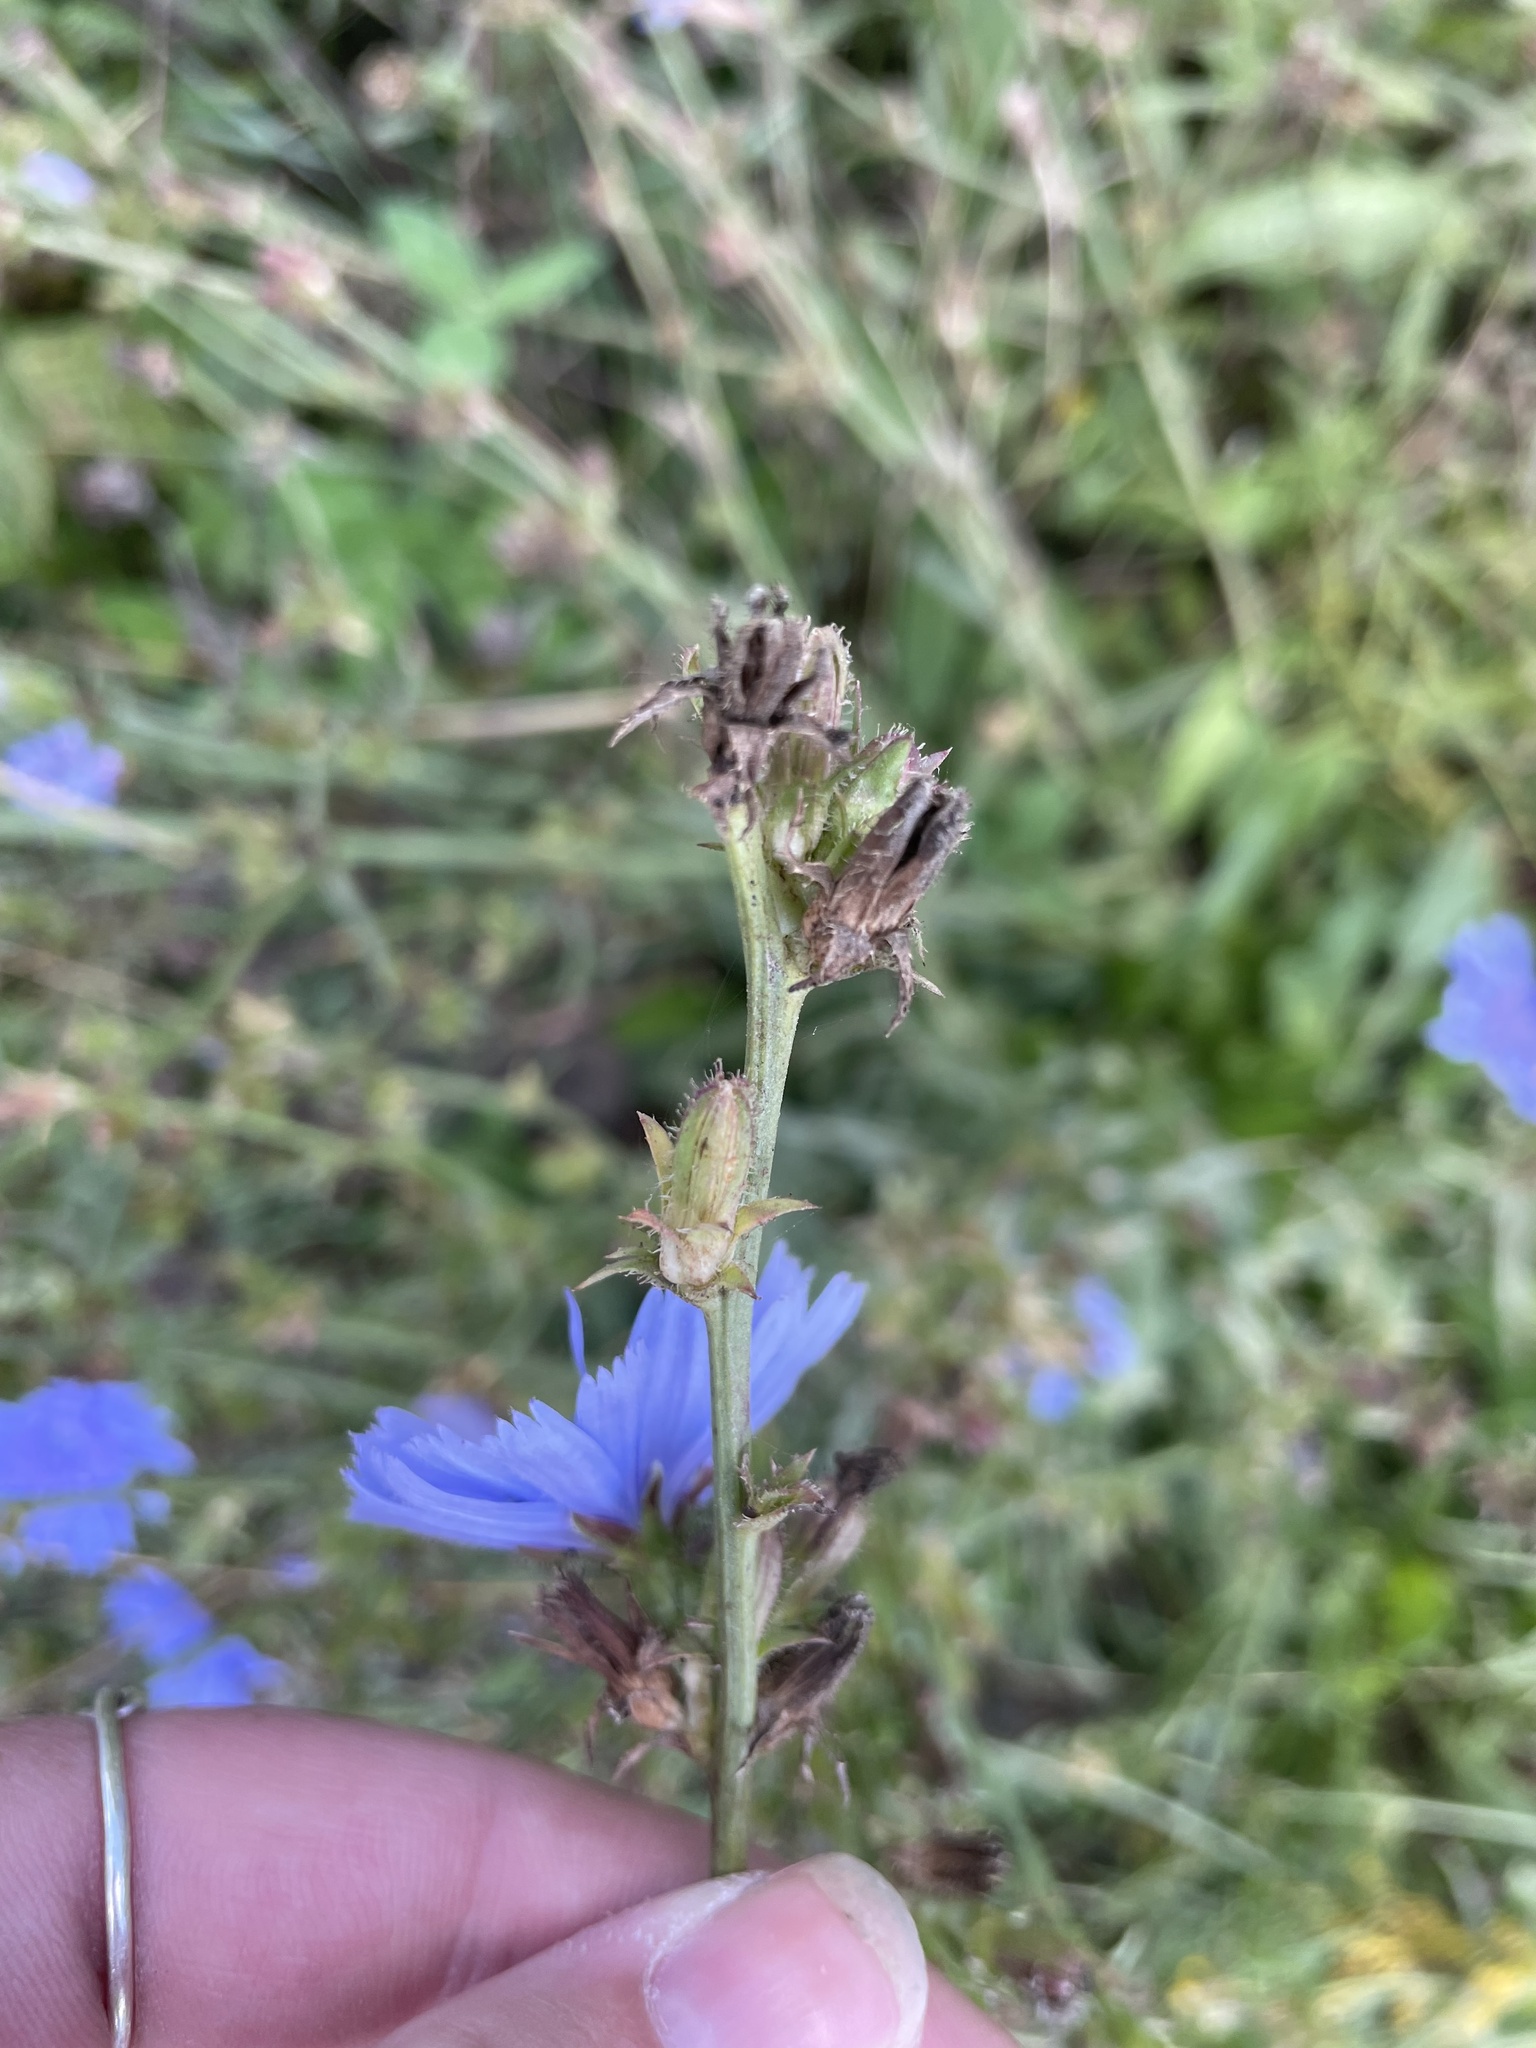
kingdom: Plantae
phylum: Tracheophyta
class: Magnoliopsida
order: Asterales
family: Asteraceae
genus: Cichorium
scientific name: Cichorium intybus
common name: Chicory
